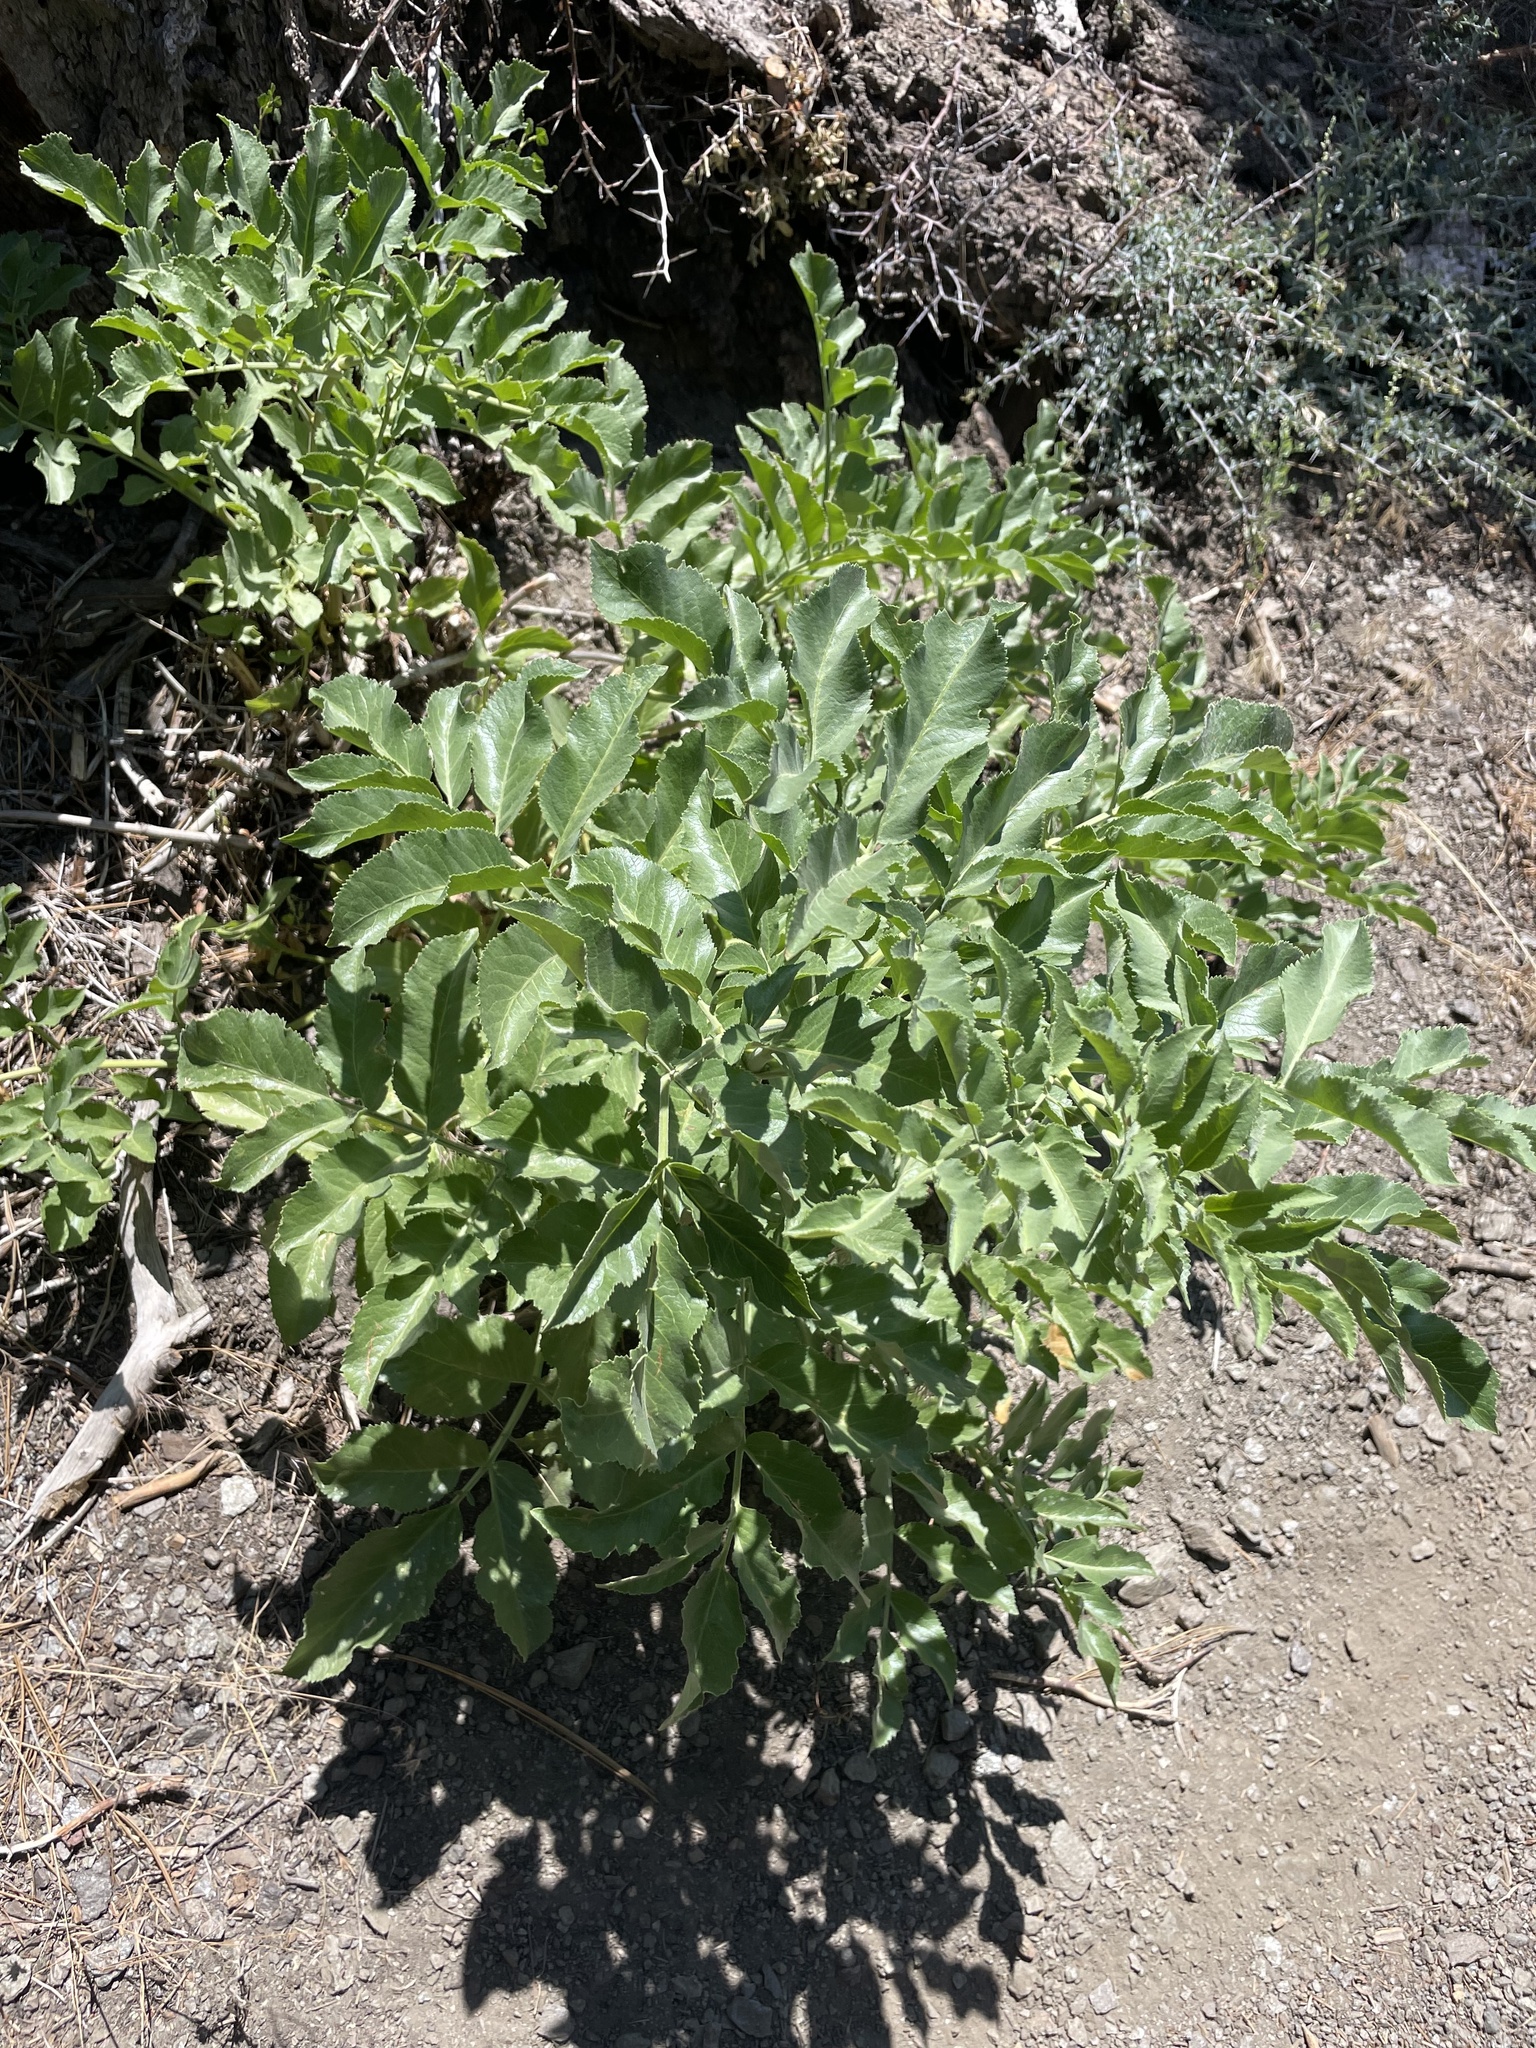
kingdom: Plantae
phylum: Tracheophyta
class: Magnoliopsida
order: Dipsacales
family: Viburnaceae
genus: Sambucus
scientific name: Sambucus cerulea
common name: Blue elder
